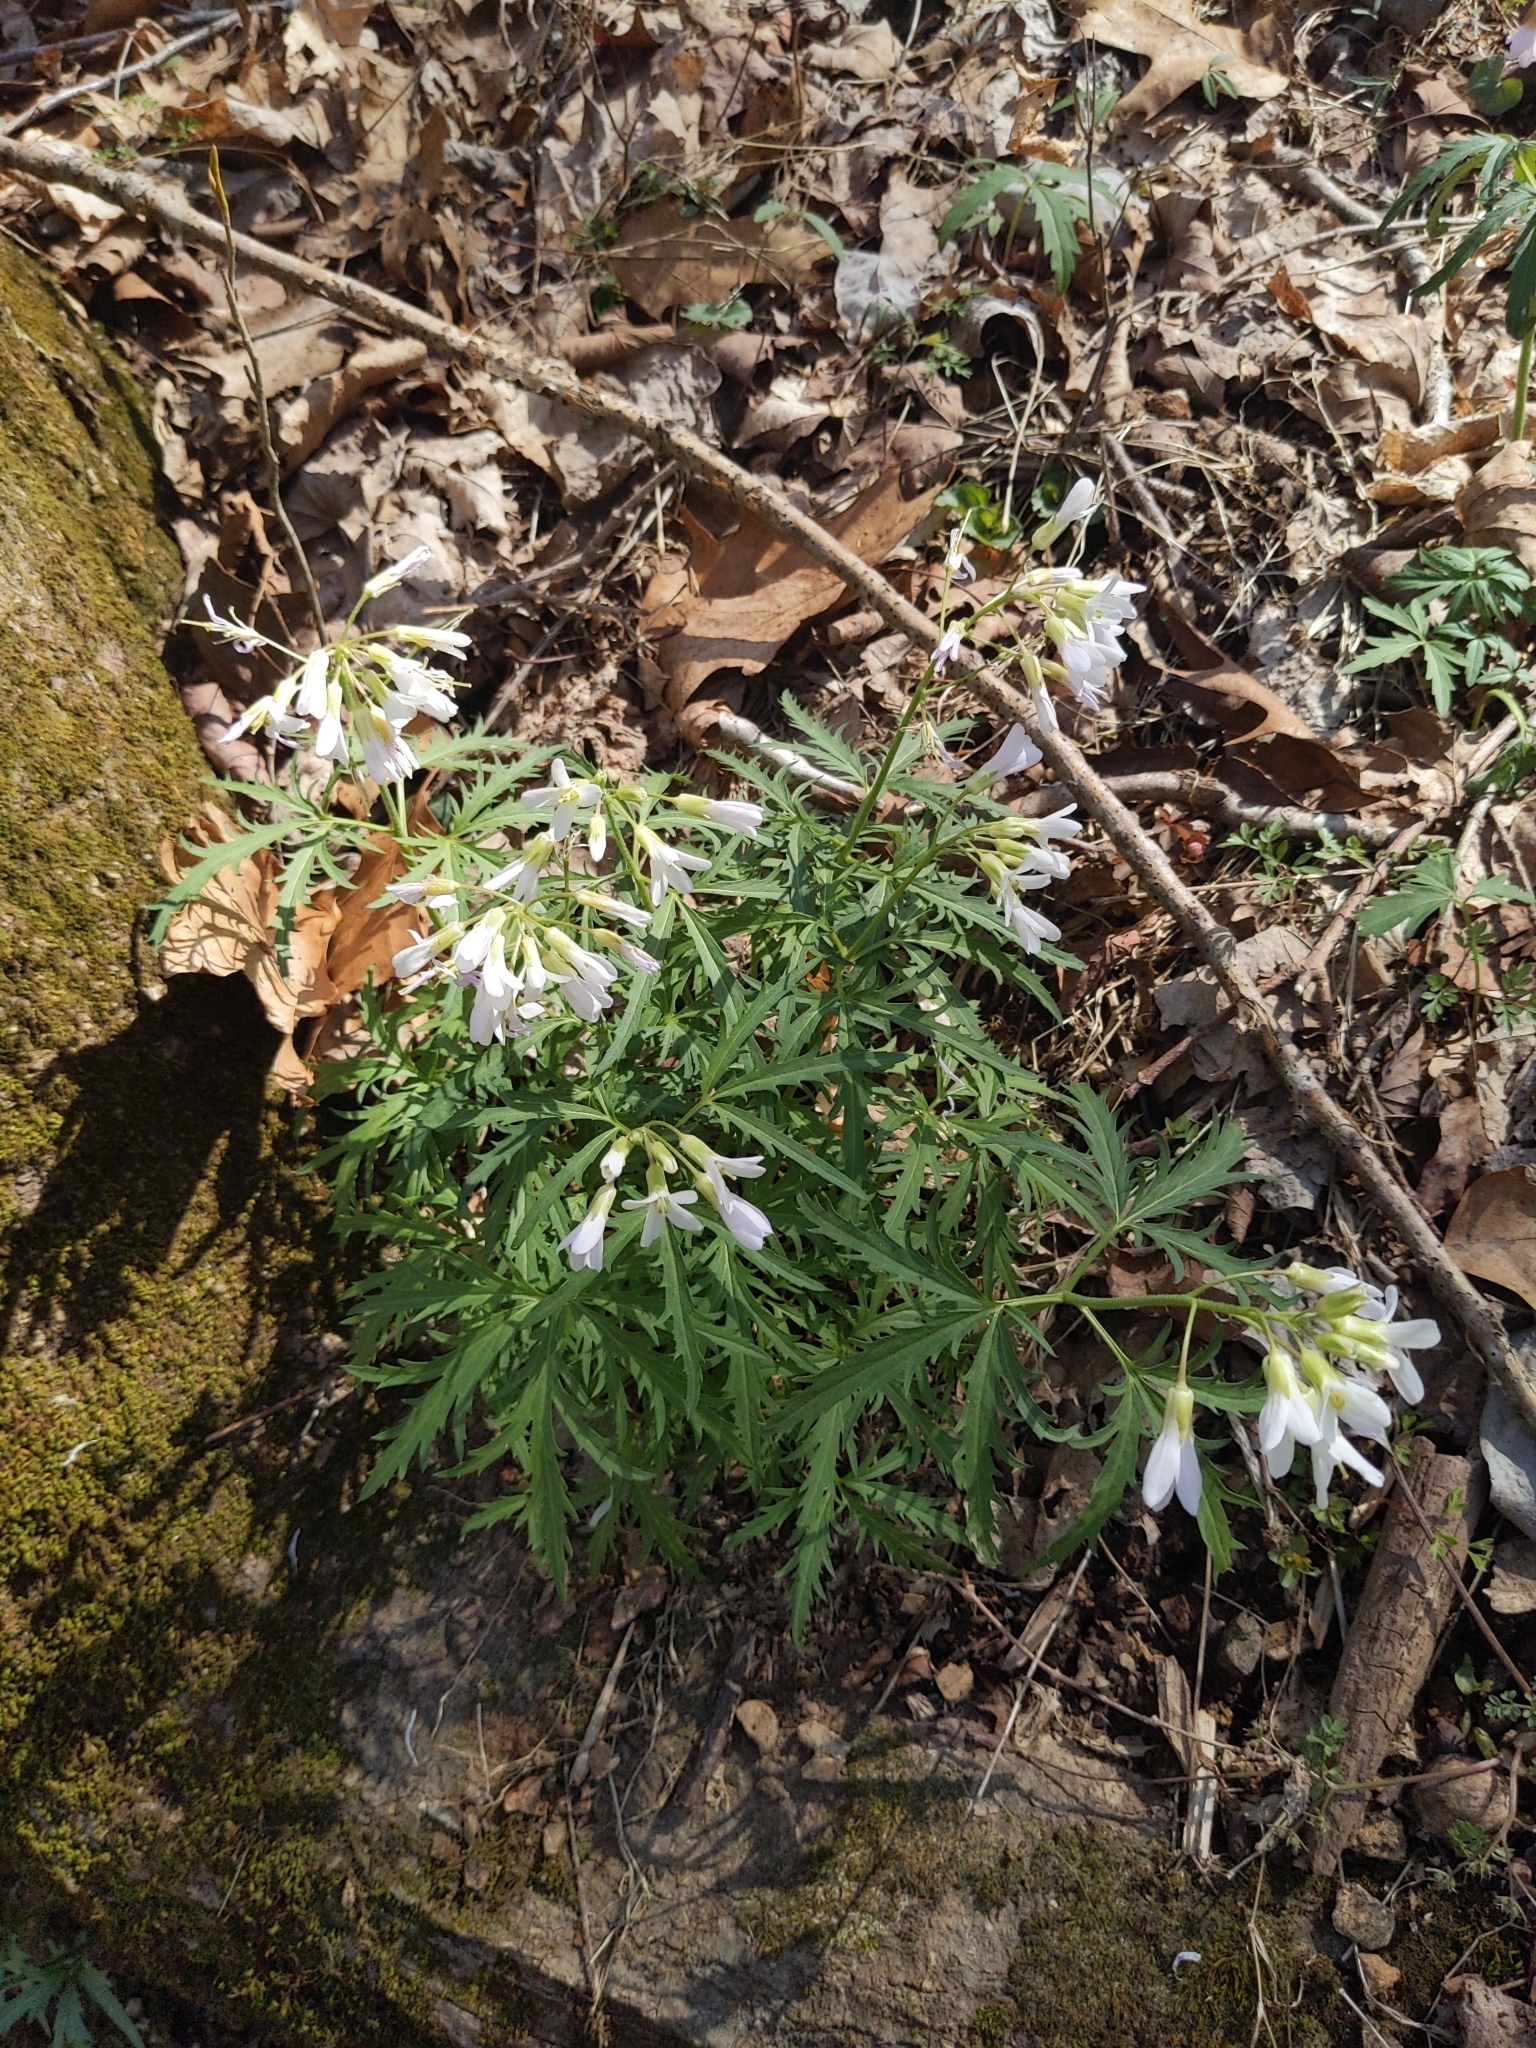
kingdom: Plantae
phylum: Tracheophyta
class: Magnoliopsida
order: Brassicales
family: Brassicaceae
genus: Cardamine
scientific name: Cardamine concatenata
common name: Cut-leaf toothcup
